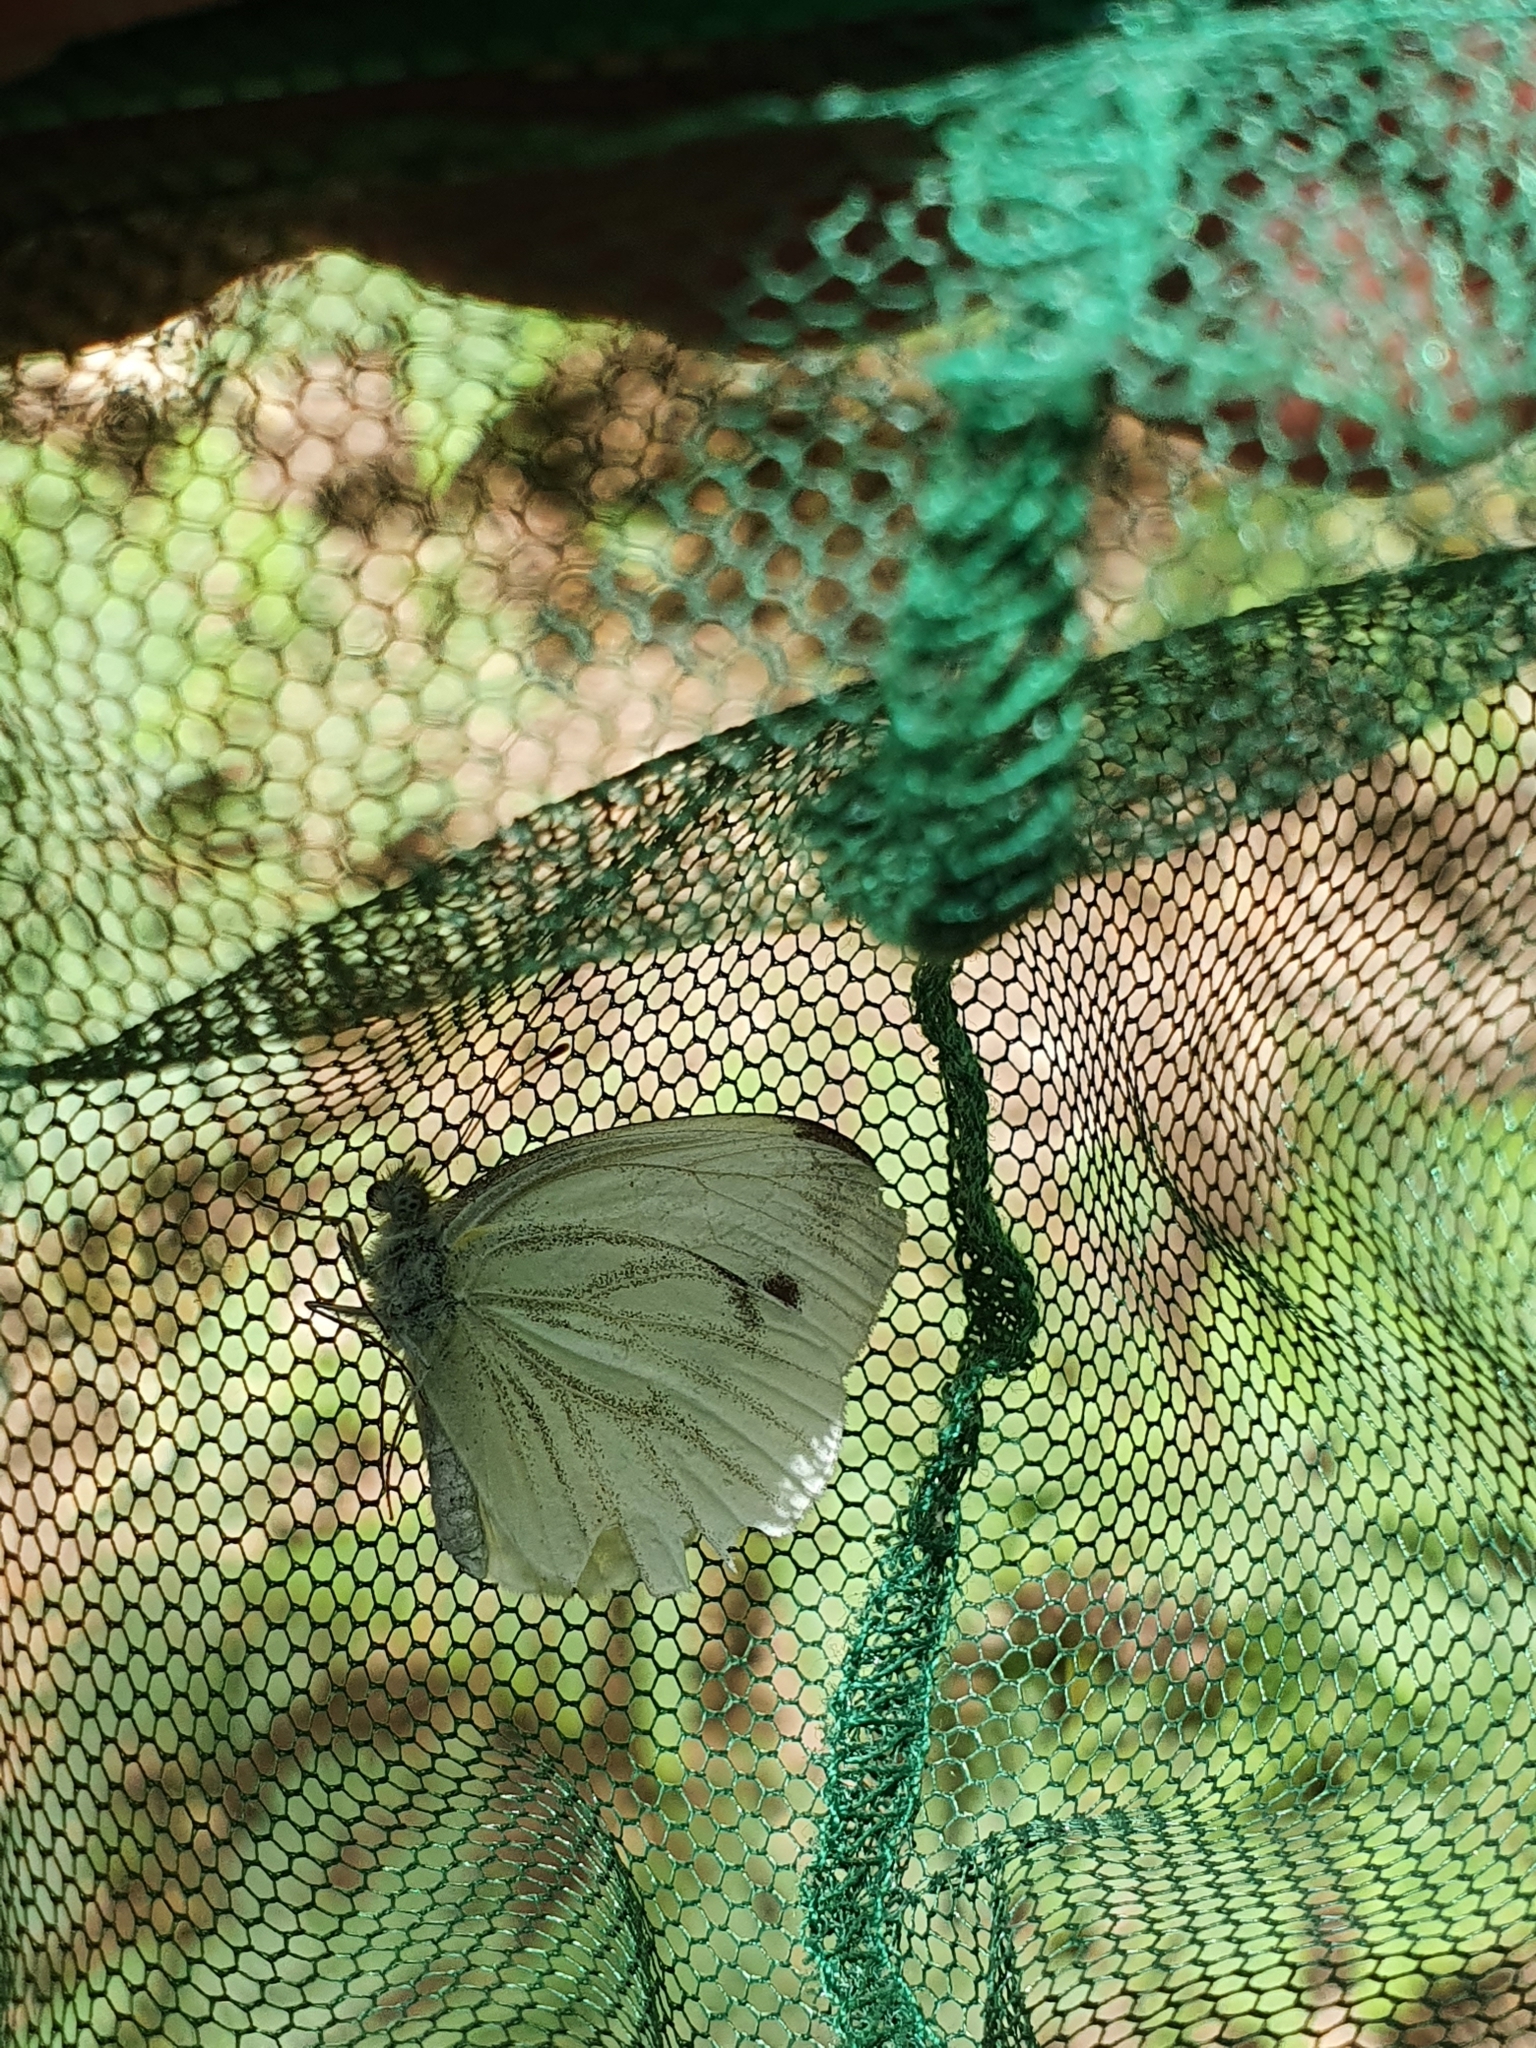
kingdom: Animalia
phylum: Arthropoda
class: Insecta
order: Lepidoptera
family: Pieridae
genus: Pieris
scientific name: Pieris napi
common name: Green-veined white
